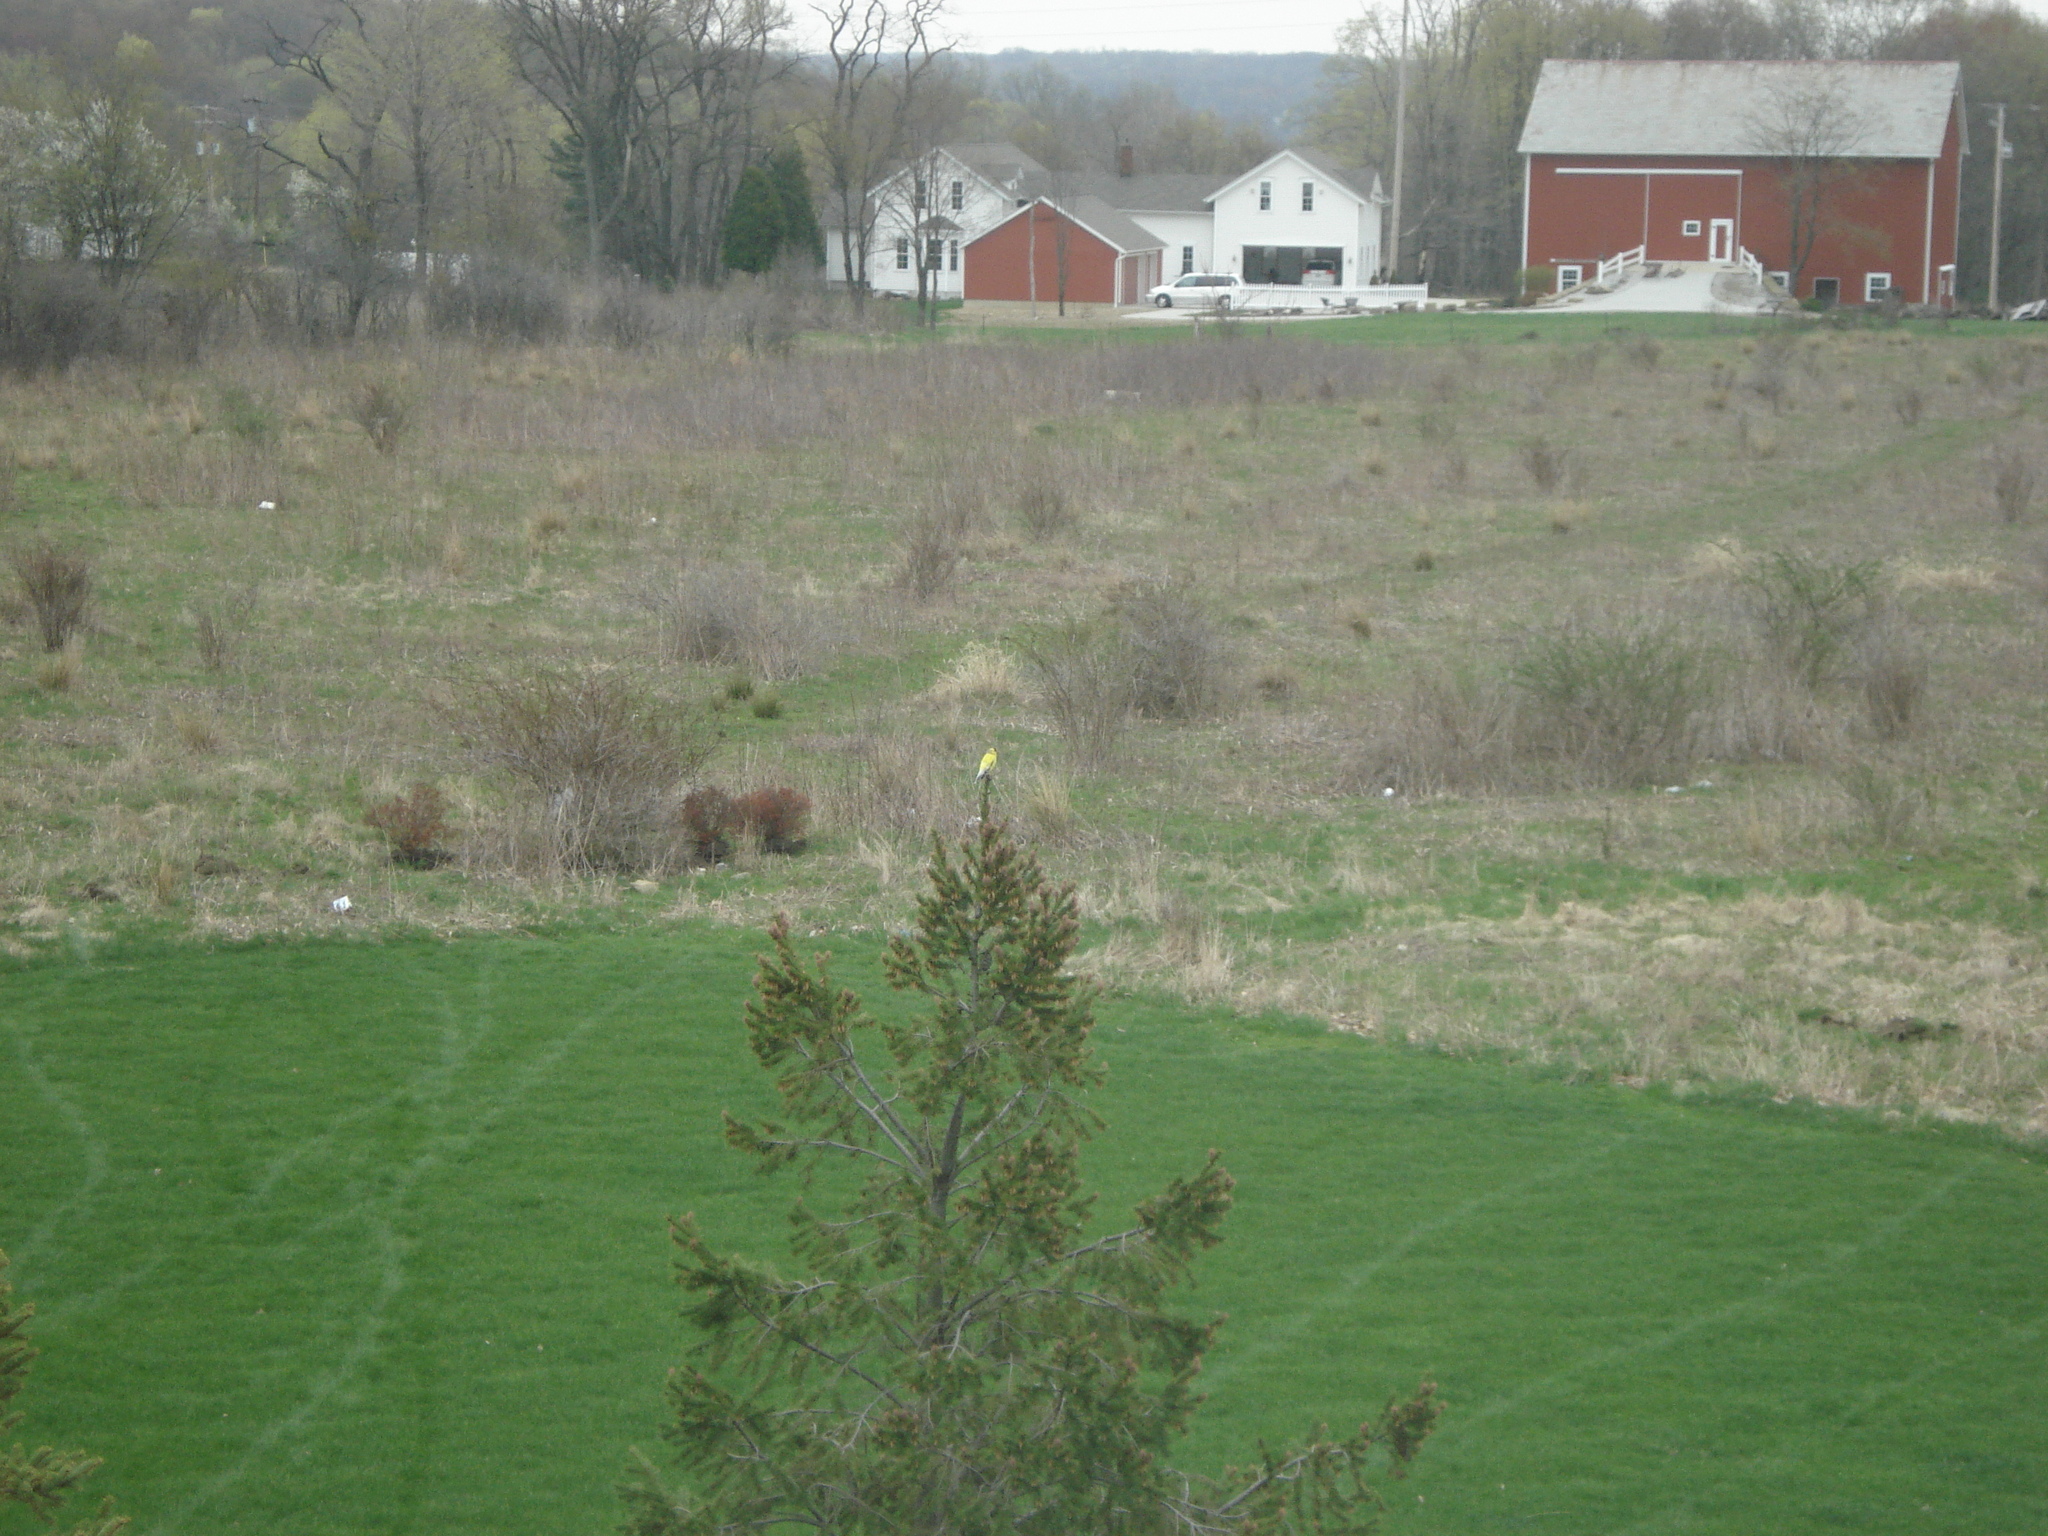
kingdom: Animalia
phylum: Chordata
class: Aves
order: Passeriformes
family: Fringillidae
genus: Spinus
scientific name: Spinus tristis
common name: American goldfinch
